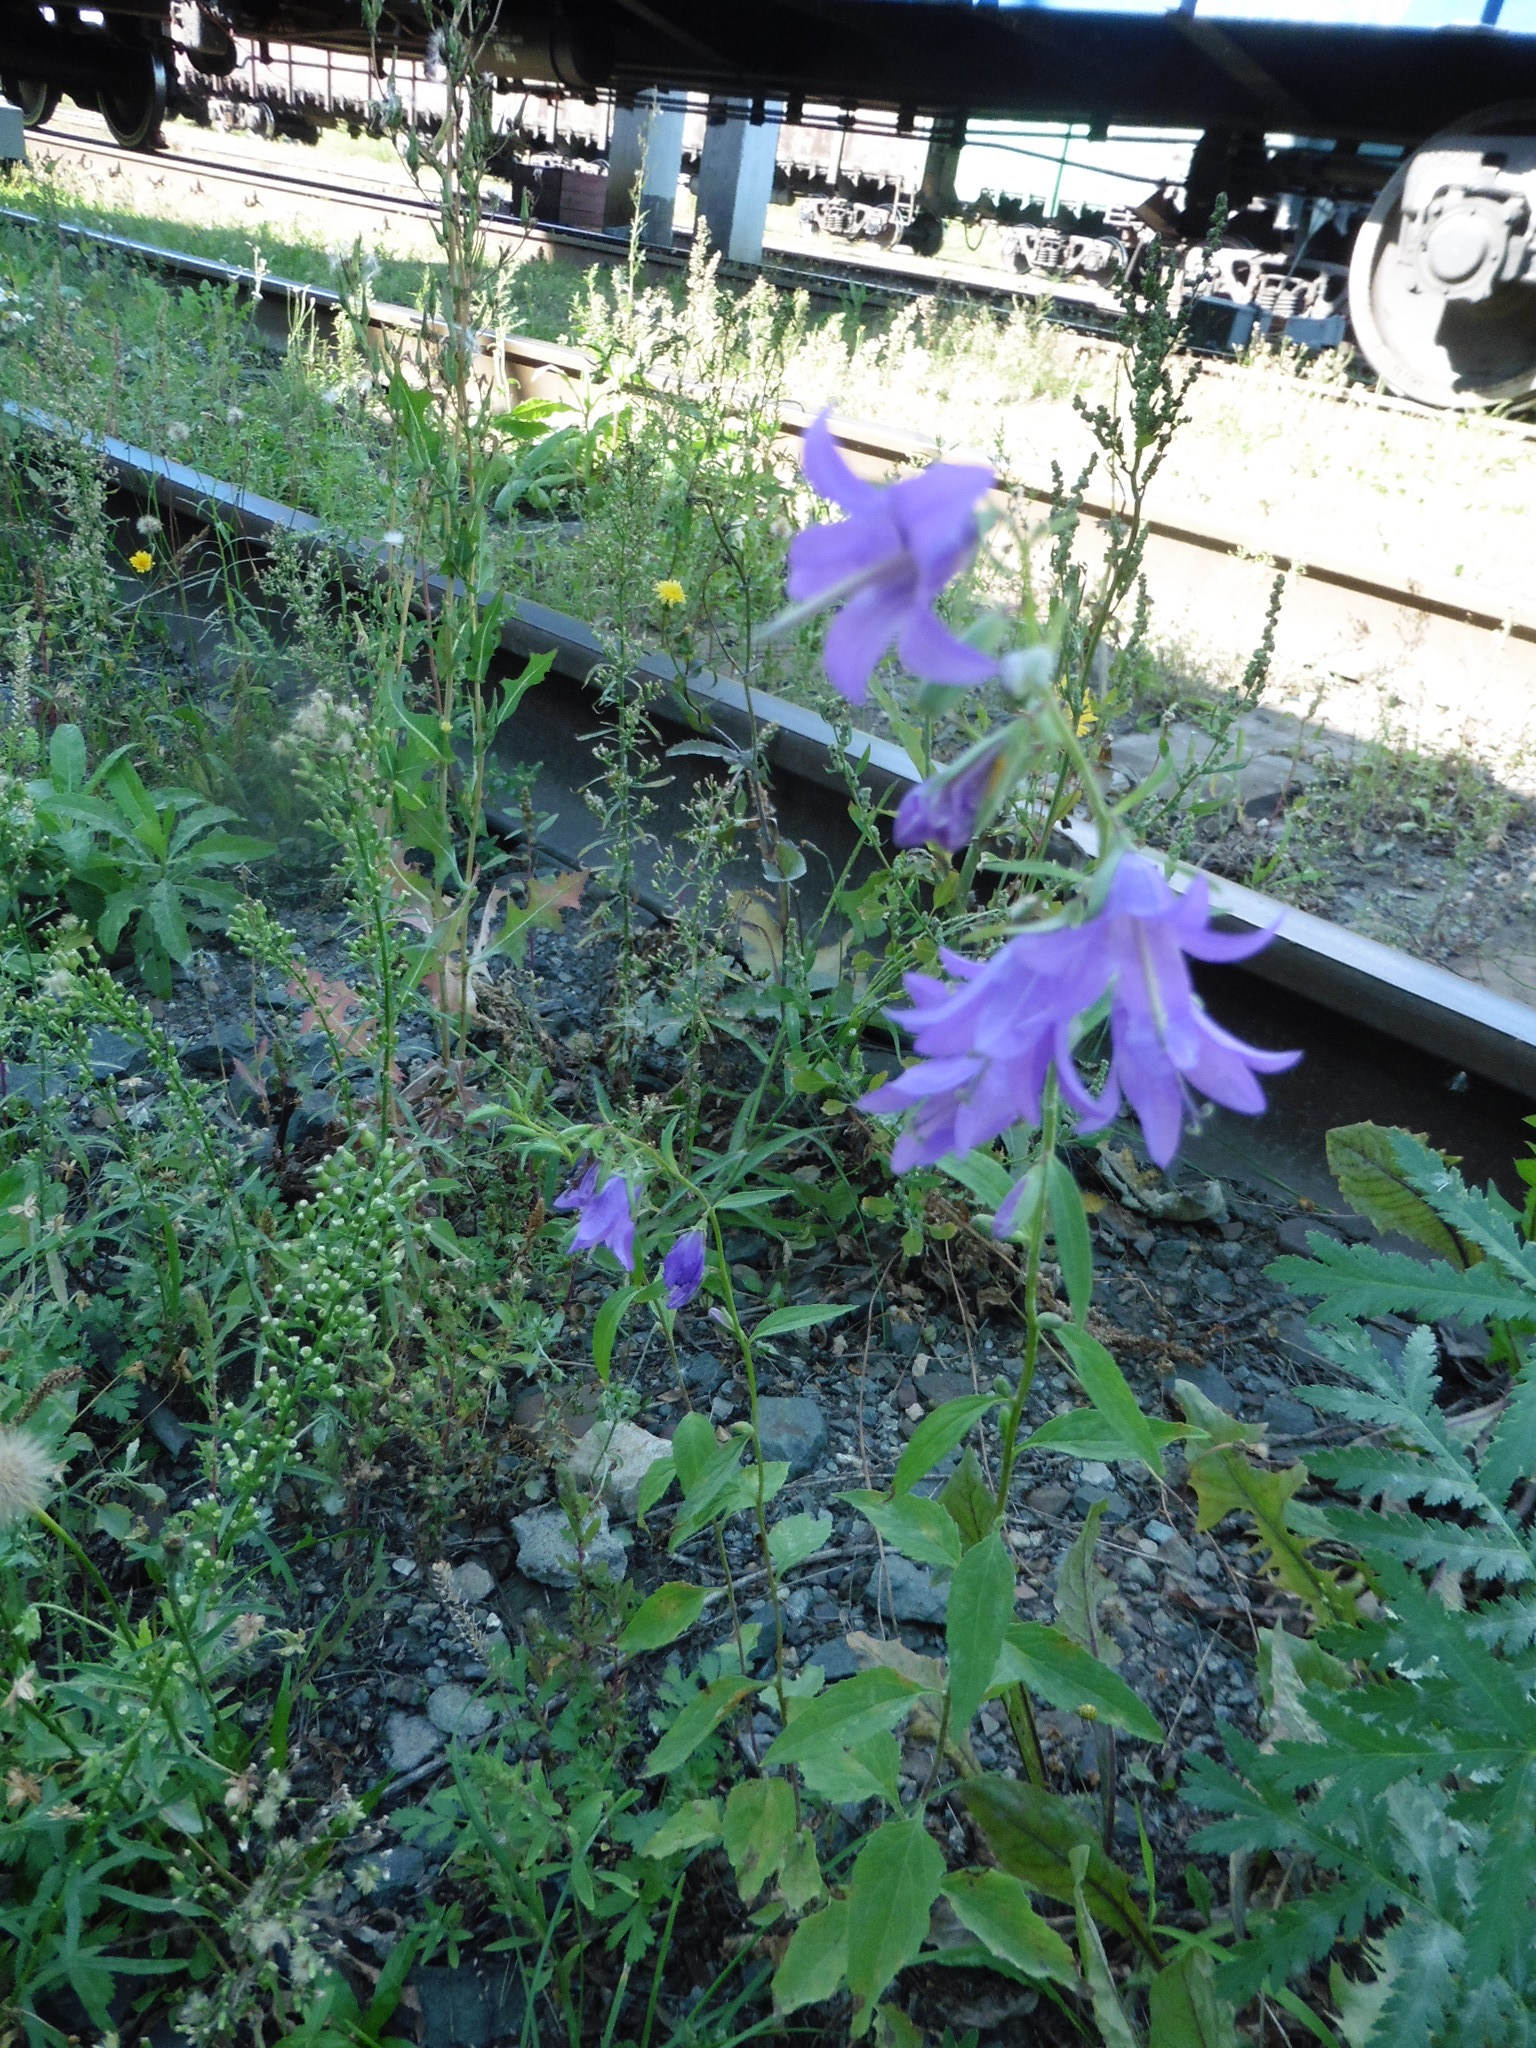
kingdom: Plantae
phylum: Tracheophyta
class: Magnoliopsida
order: Asterales
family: Campanulaceae
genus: Campanula
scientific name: Campanula rapunculoides
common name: Creeping bellflower
